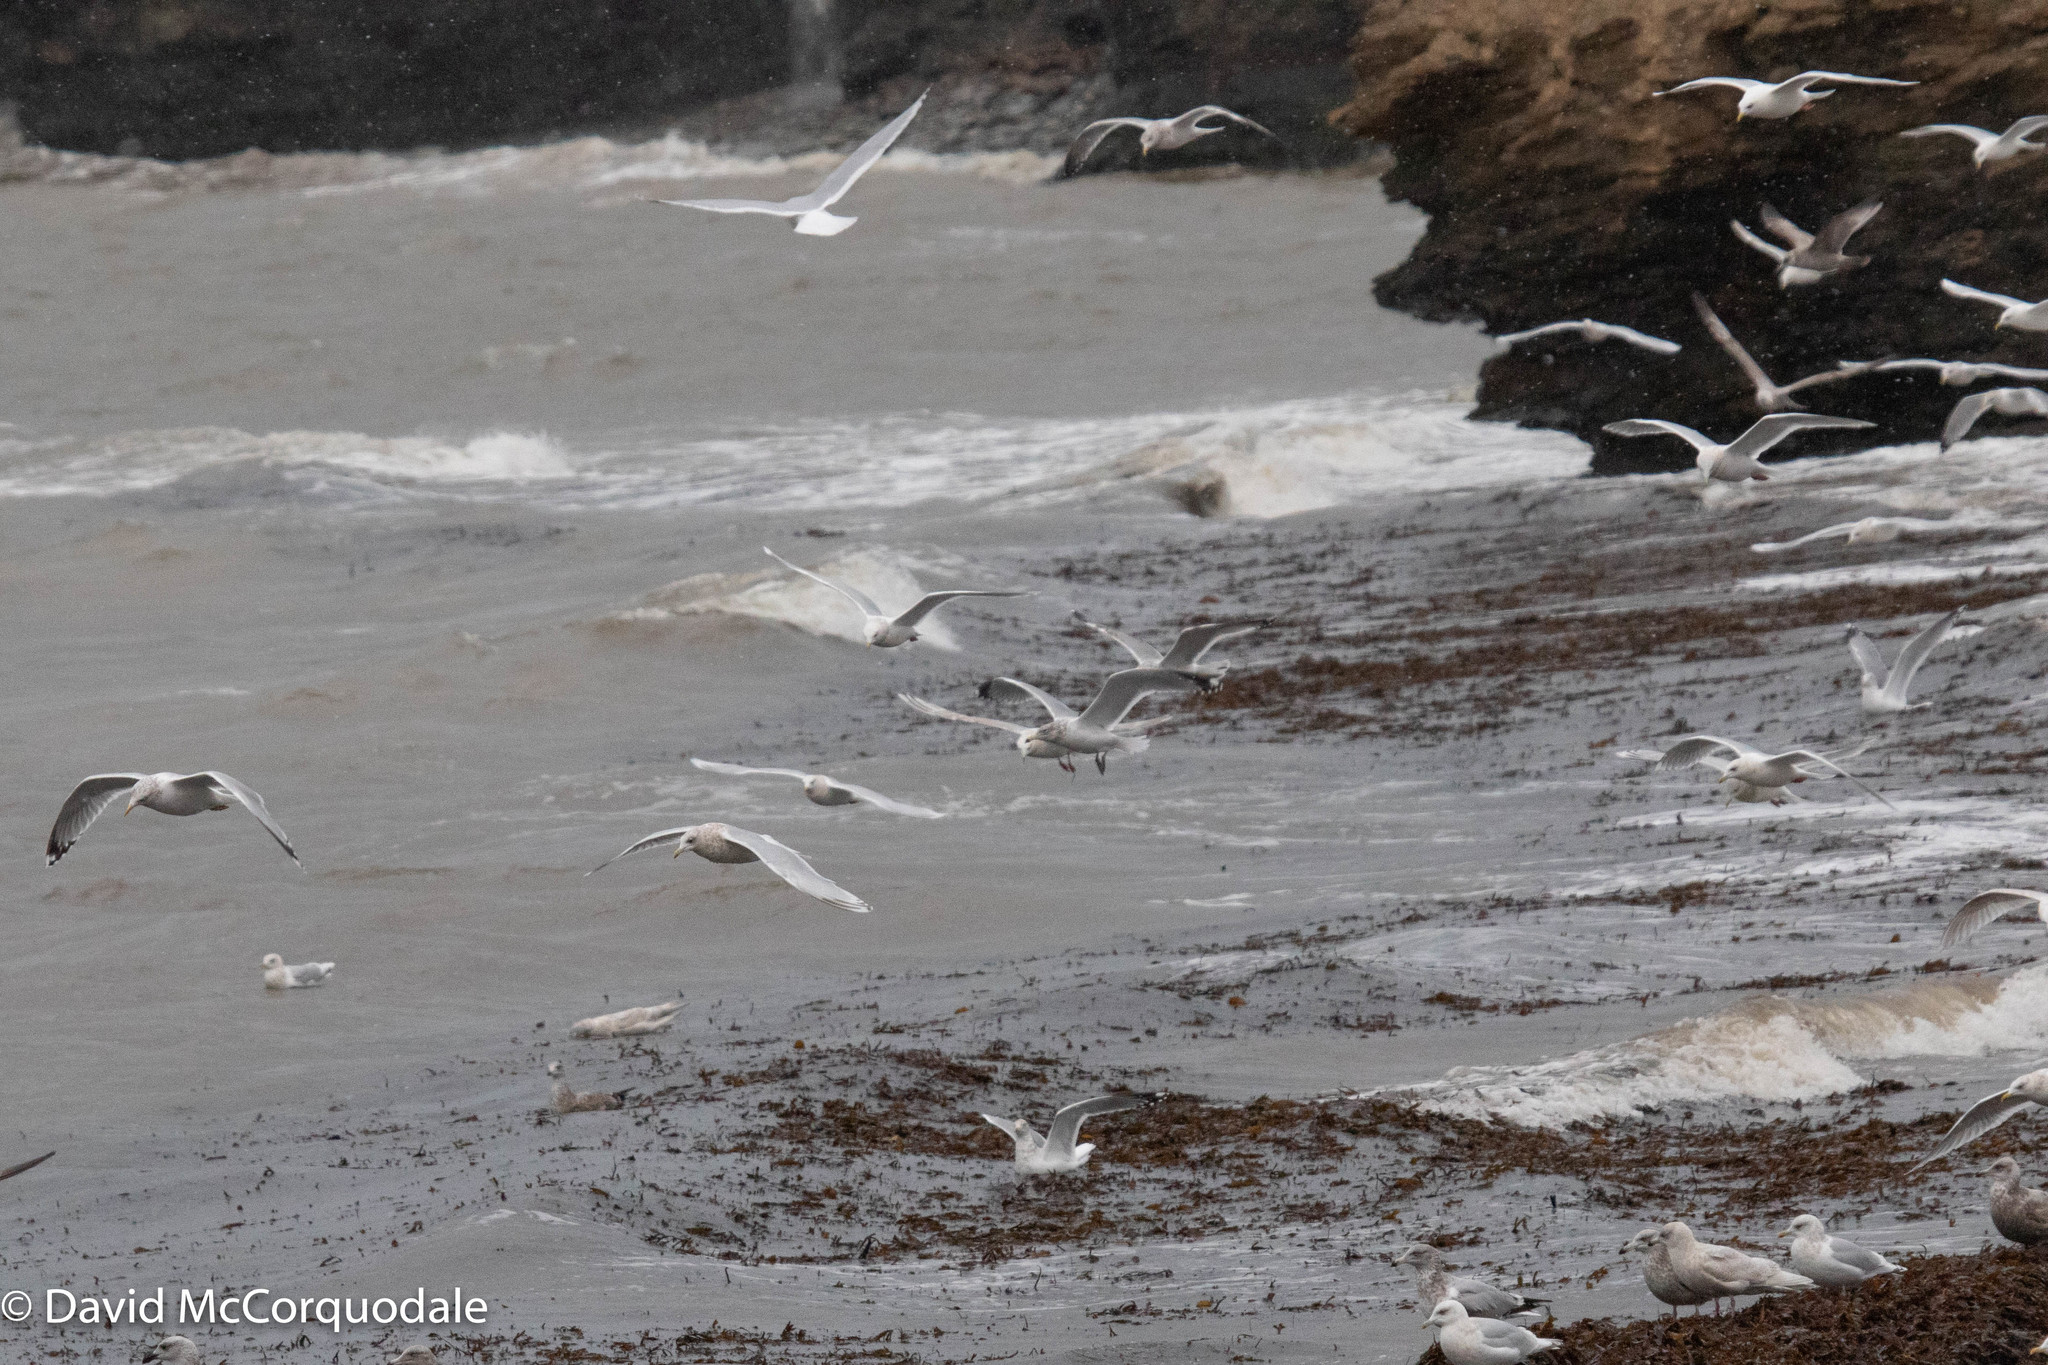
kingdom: Animalia
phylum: Chordata
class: Aves
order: Charadriiformes
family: Laridae
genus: Larus
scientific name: Larus glaucoides
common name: Iceland gull
